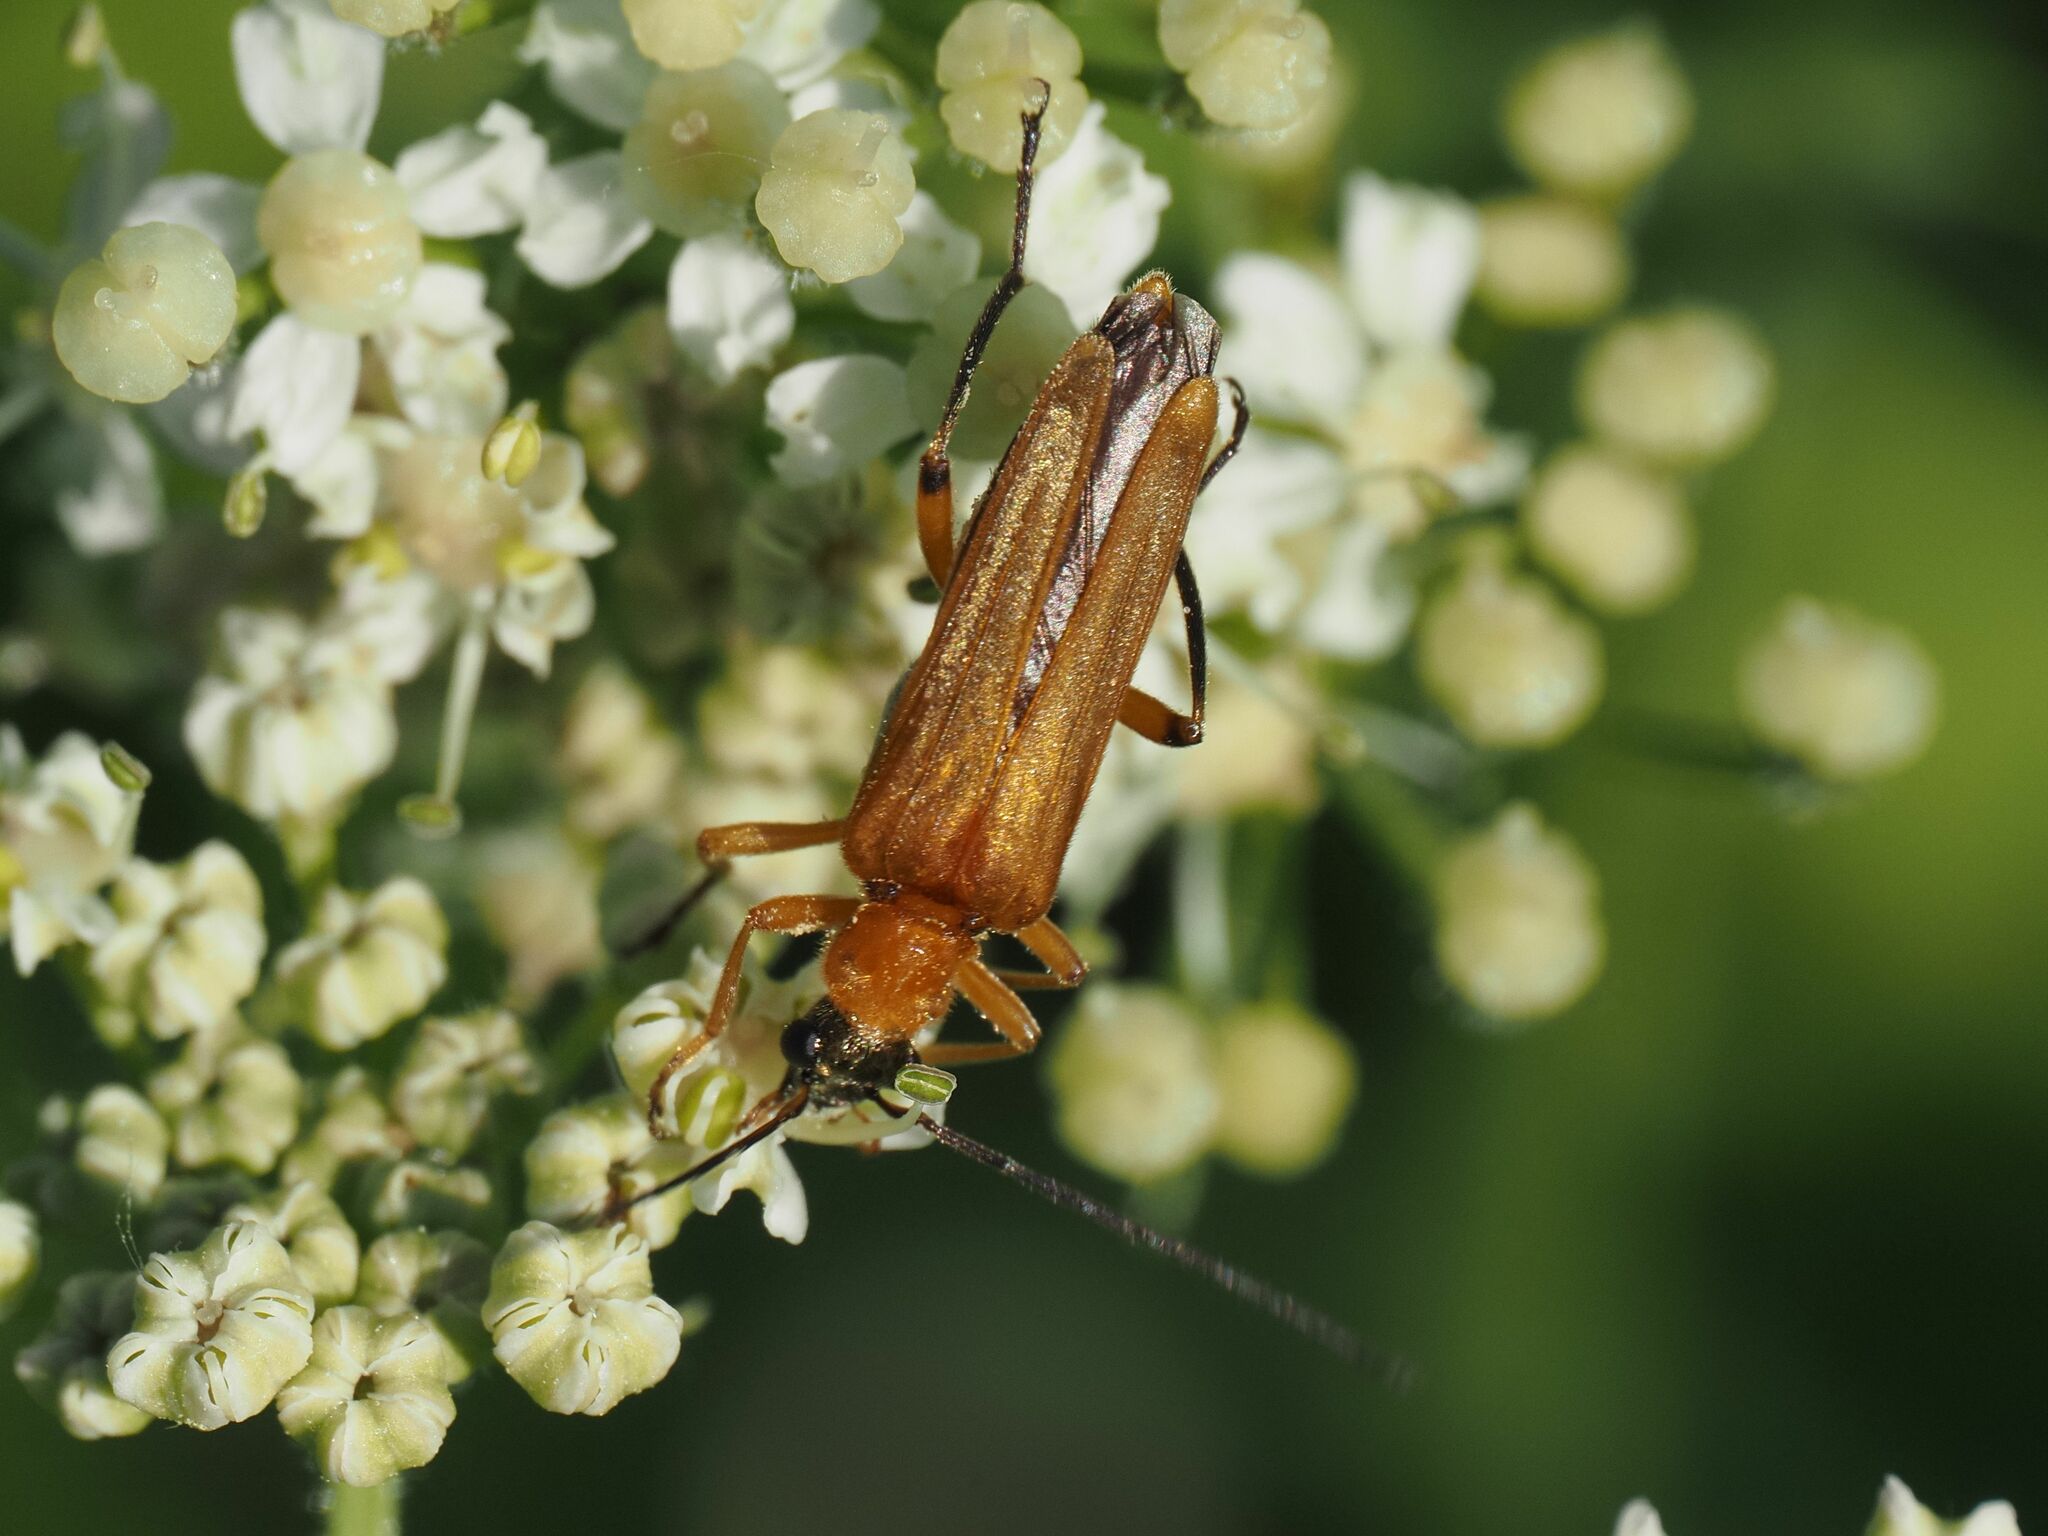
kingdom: Animalia
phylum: Arthropoda
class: Insecta
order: Coleoptera
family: Oedemeridae
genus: Oedemera
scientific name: Oedemera podagrariae
